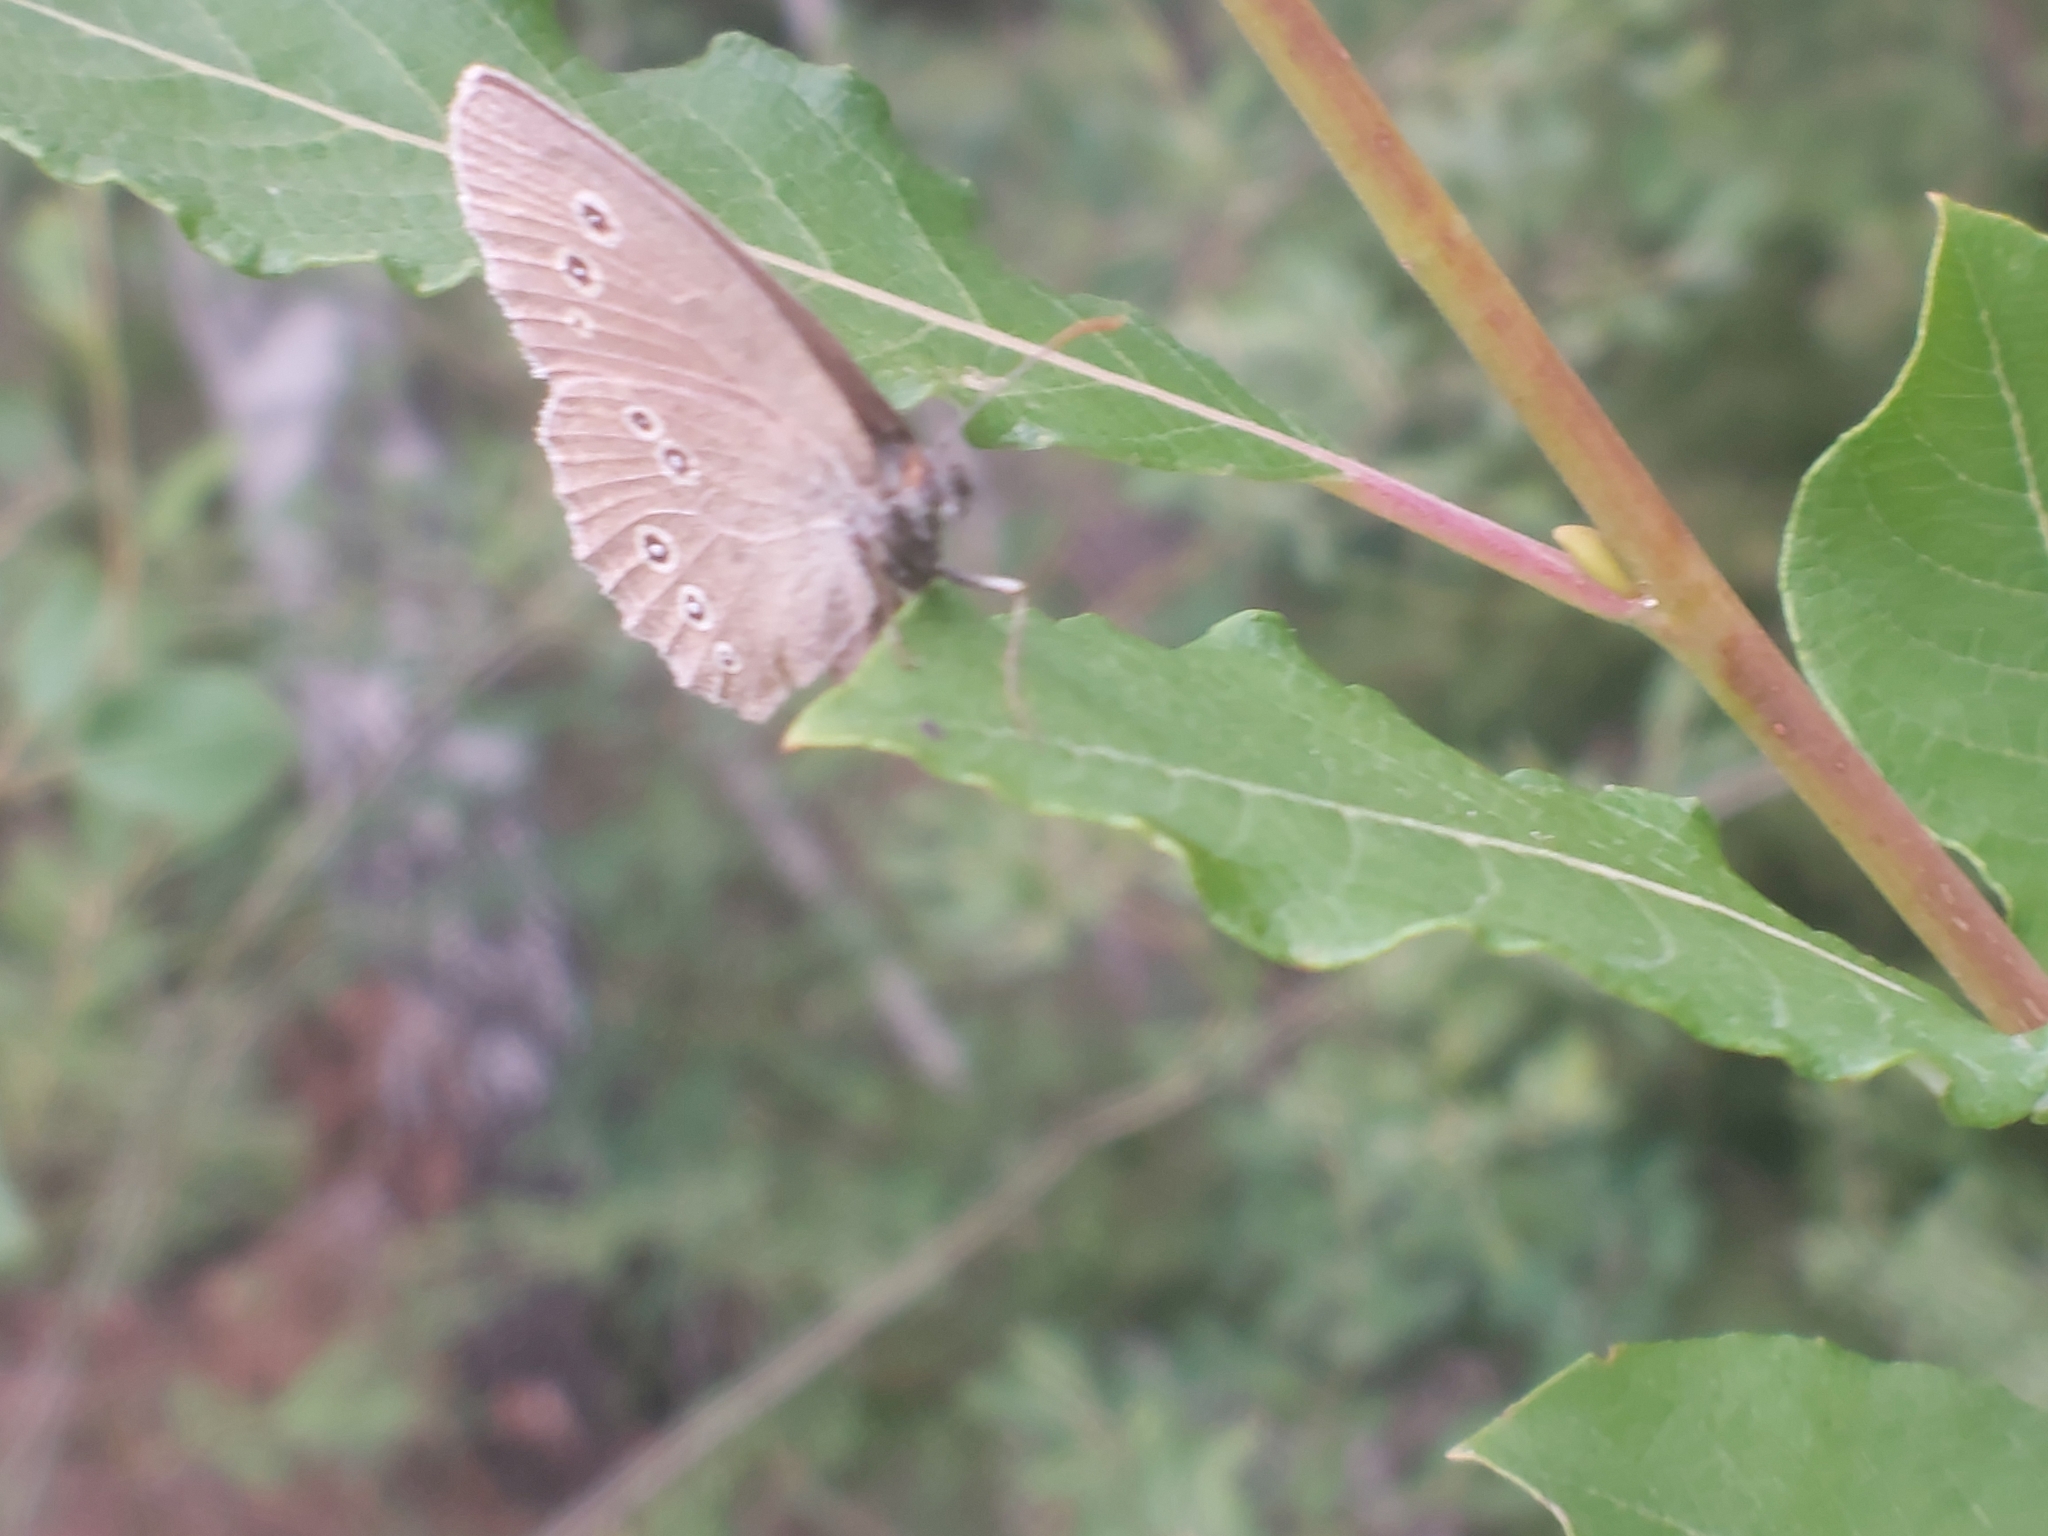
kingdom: Animalia
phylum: Arthropoda
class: Insecta
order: Lepidoptera
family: Nymphalidae
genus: Aphantopus
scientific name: Aphantopus hyperantus
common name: Ringlet
